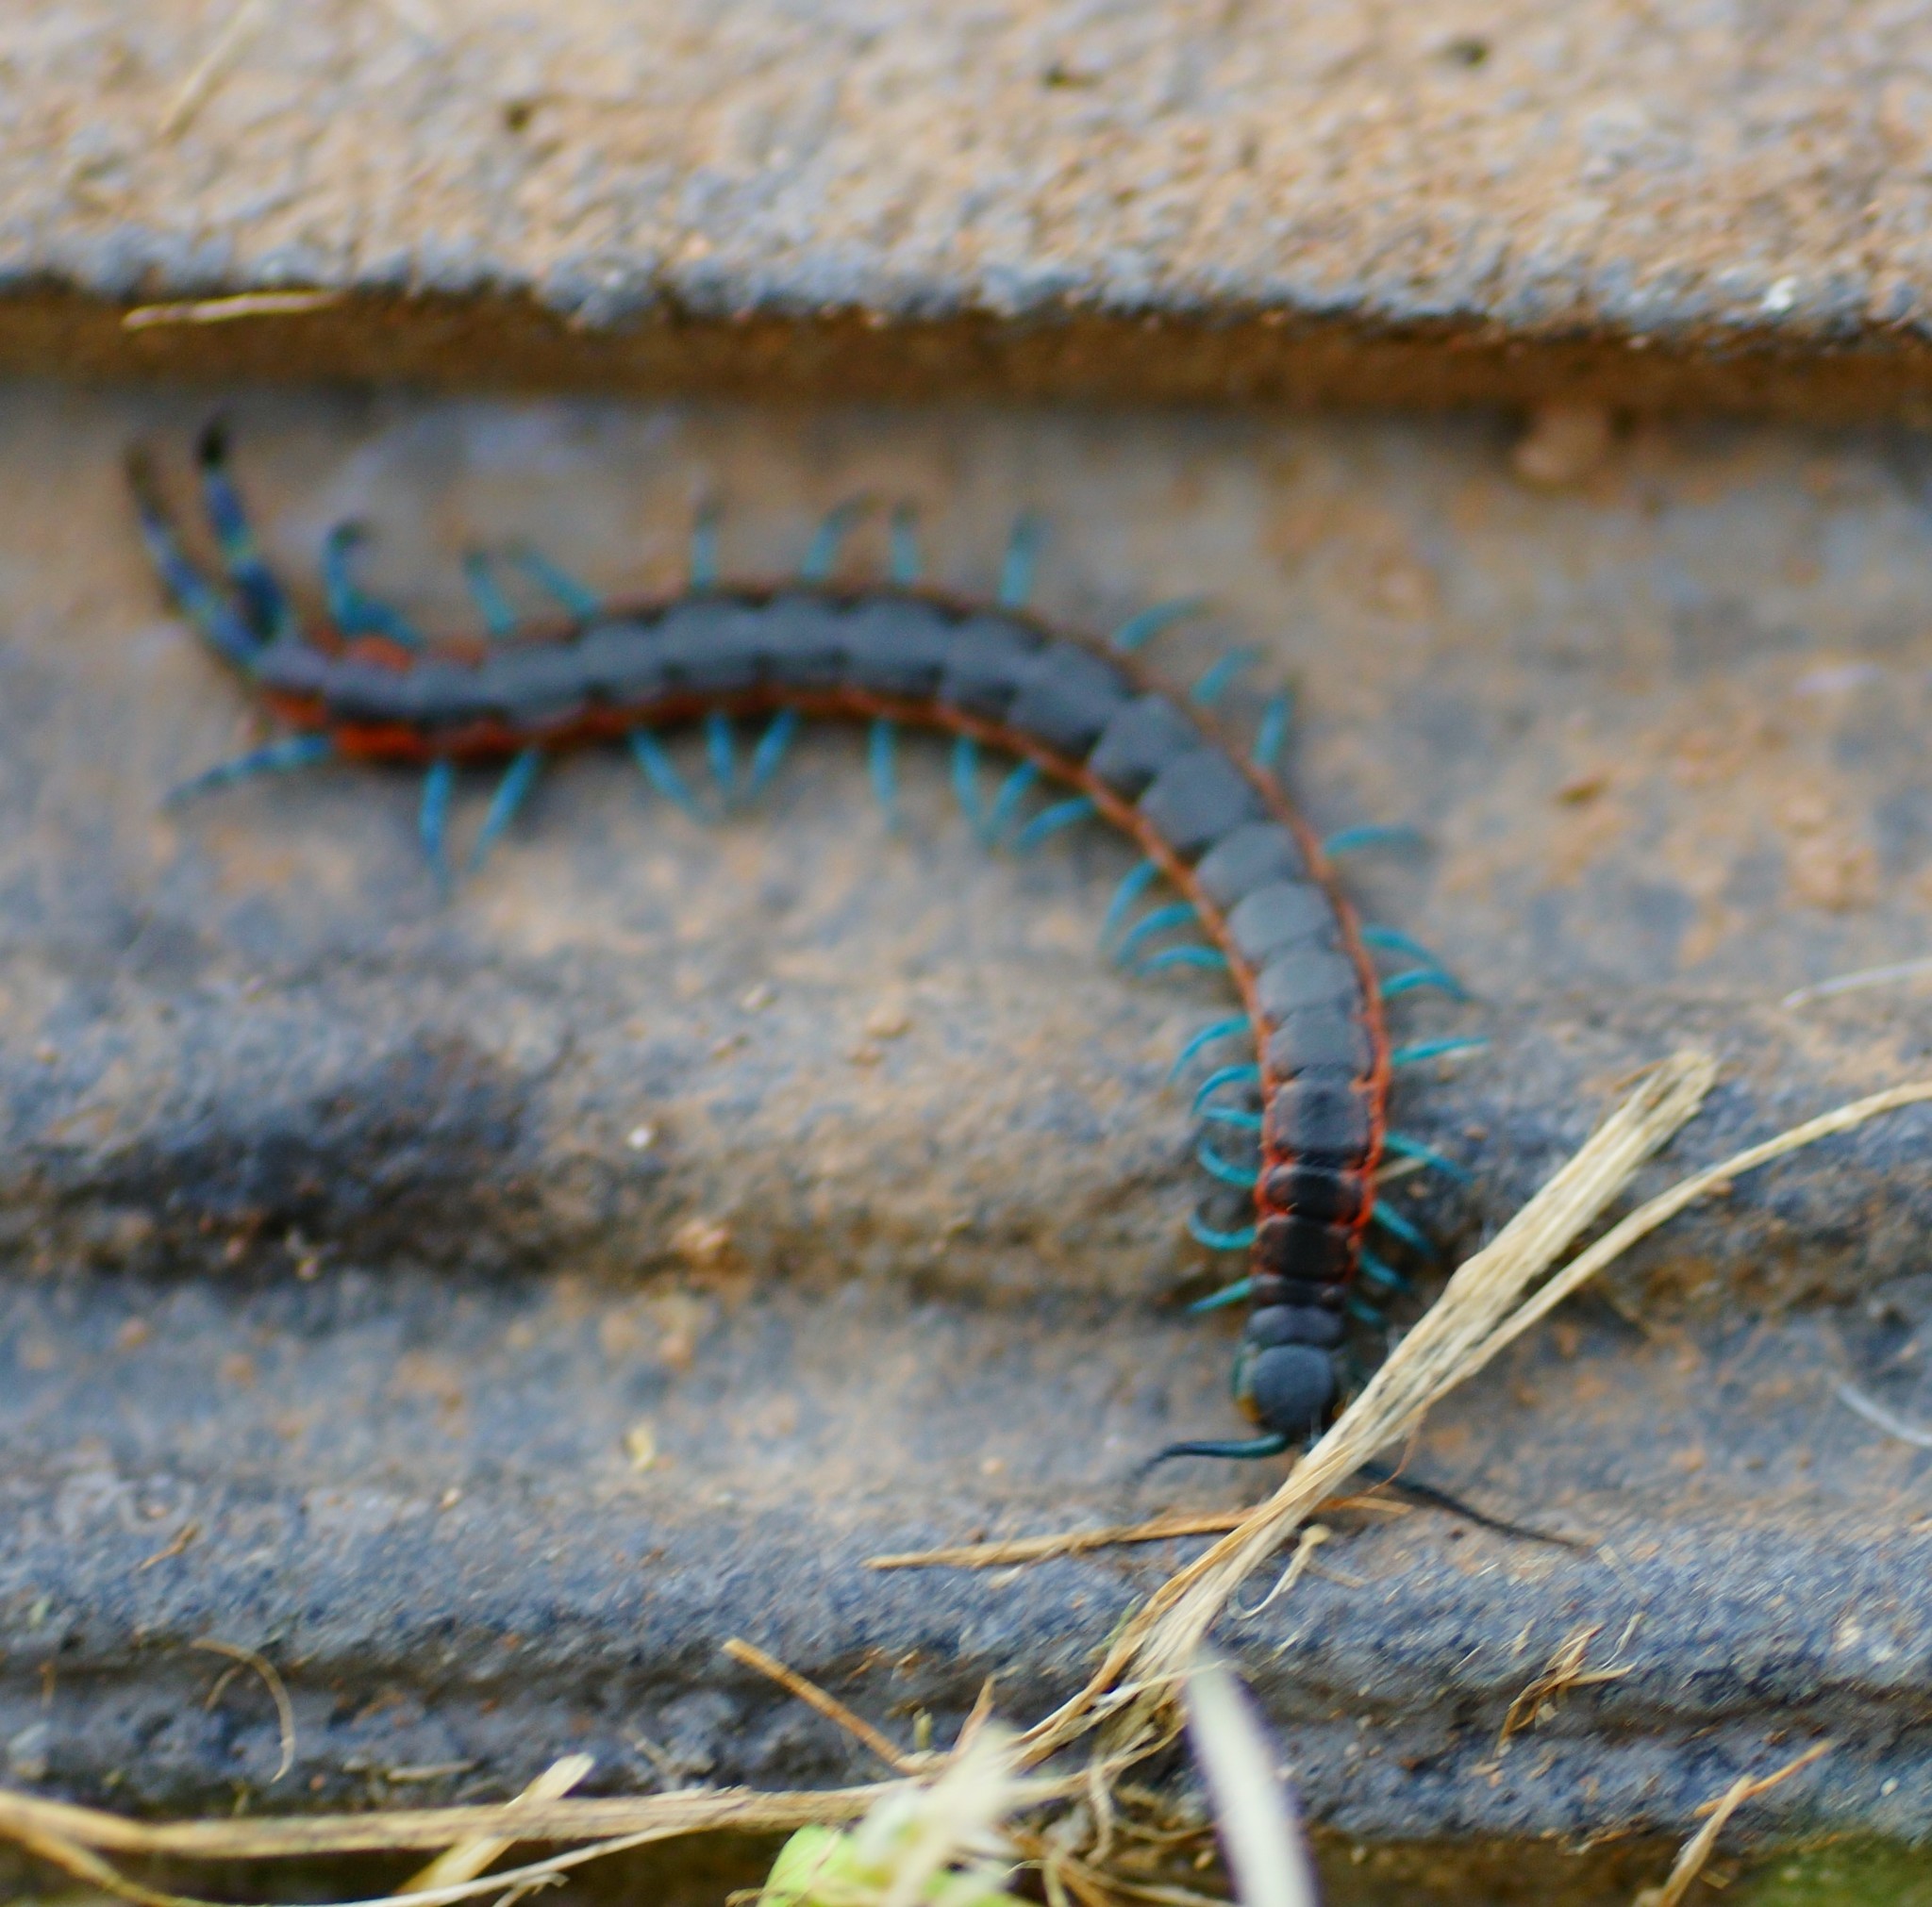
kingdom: Animalia
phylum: Arthropoda
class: Chilopoda
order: Scolopendromorpha
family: Scolopendridae
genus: Scolopendra
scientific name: Scolopendra laeta
